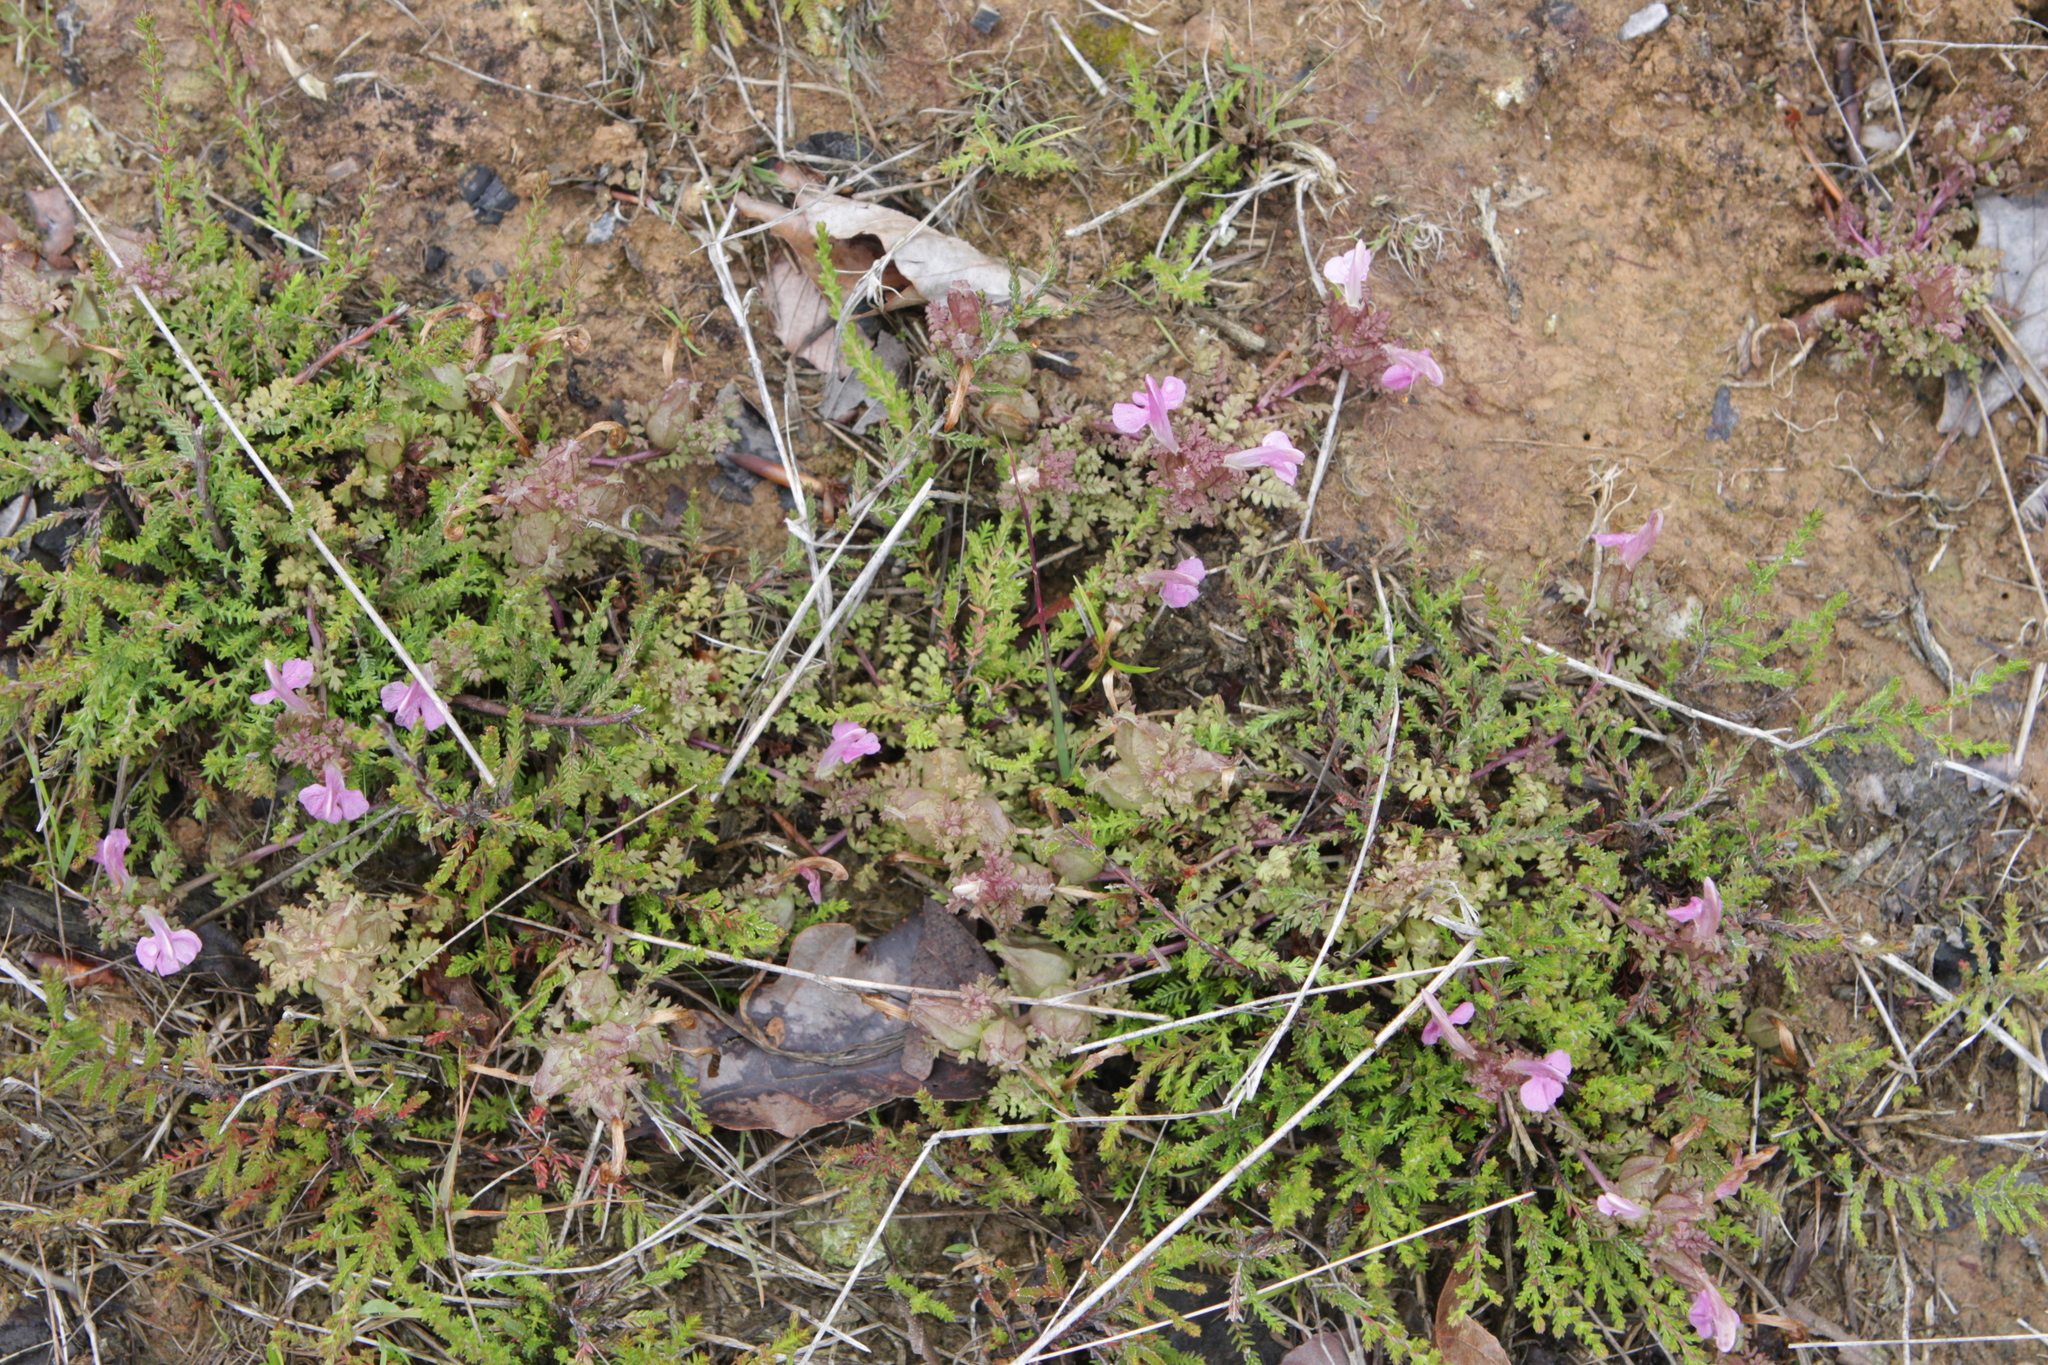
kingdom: Plantae
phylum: Tracheophyta
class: Magnoliopsida
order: Lamiales
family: Orobanchaceae
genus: Pedicularis
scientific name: Pedicularis sylvatica
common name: Lousewort
